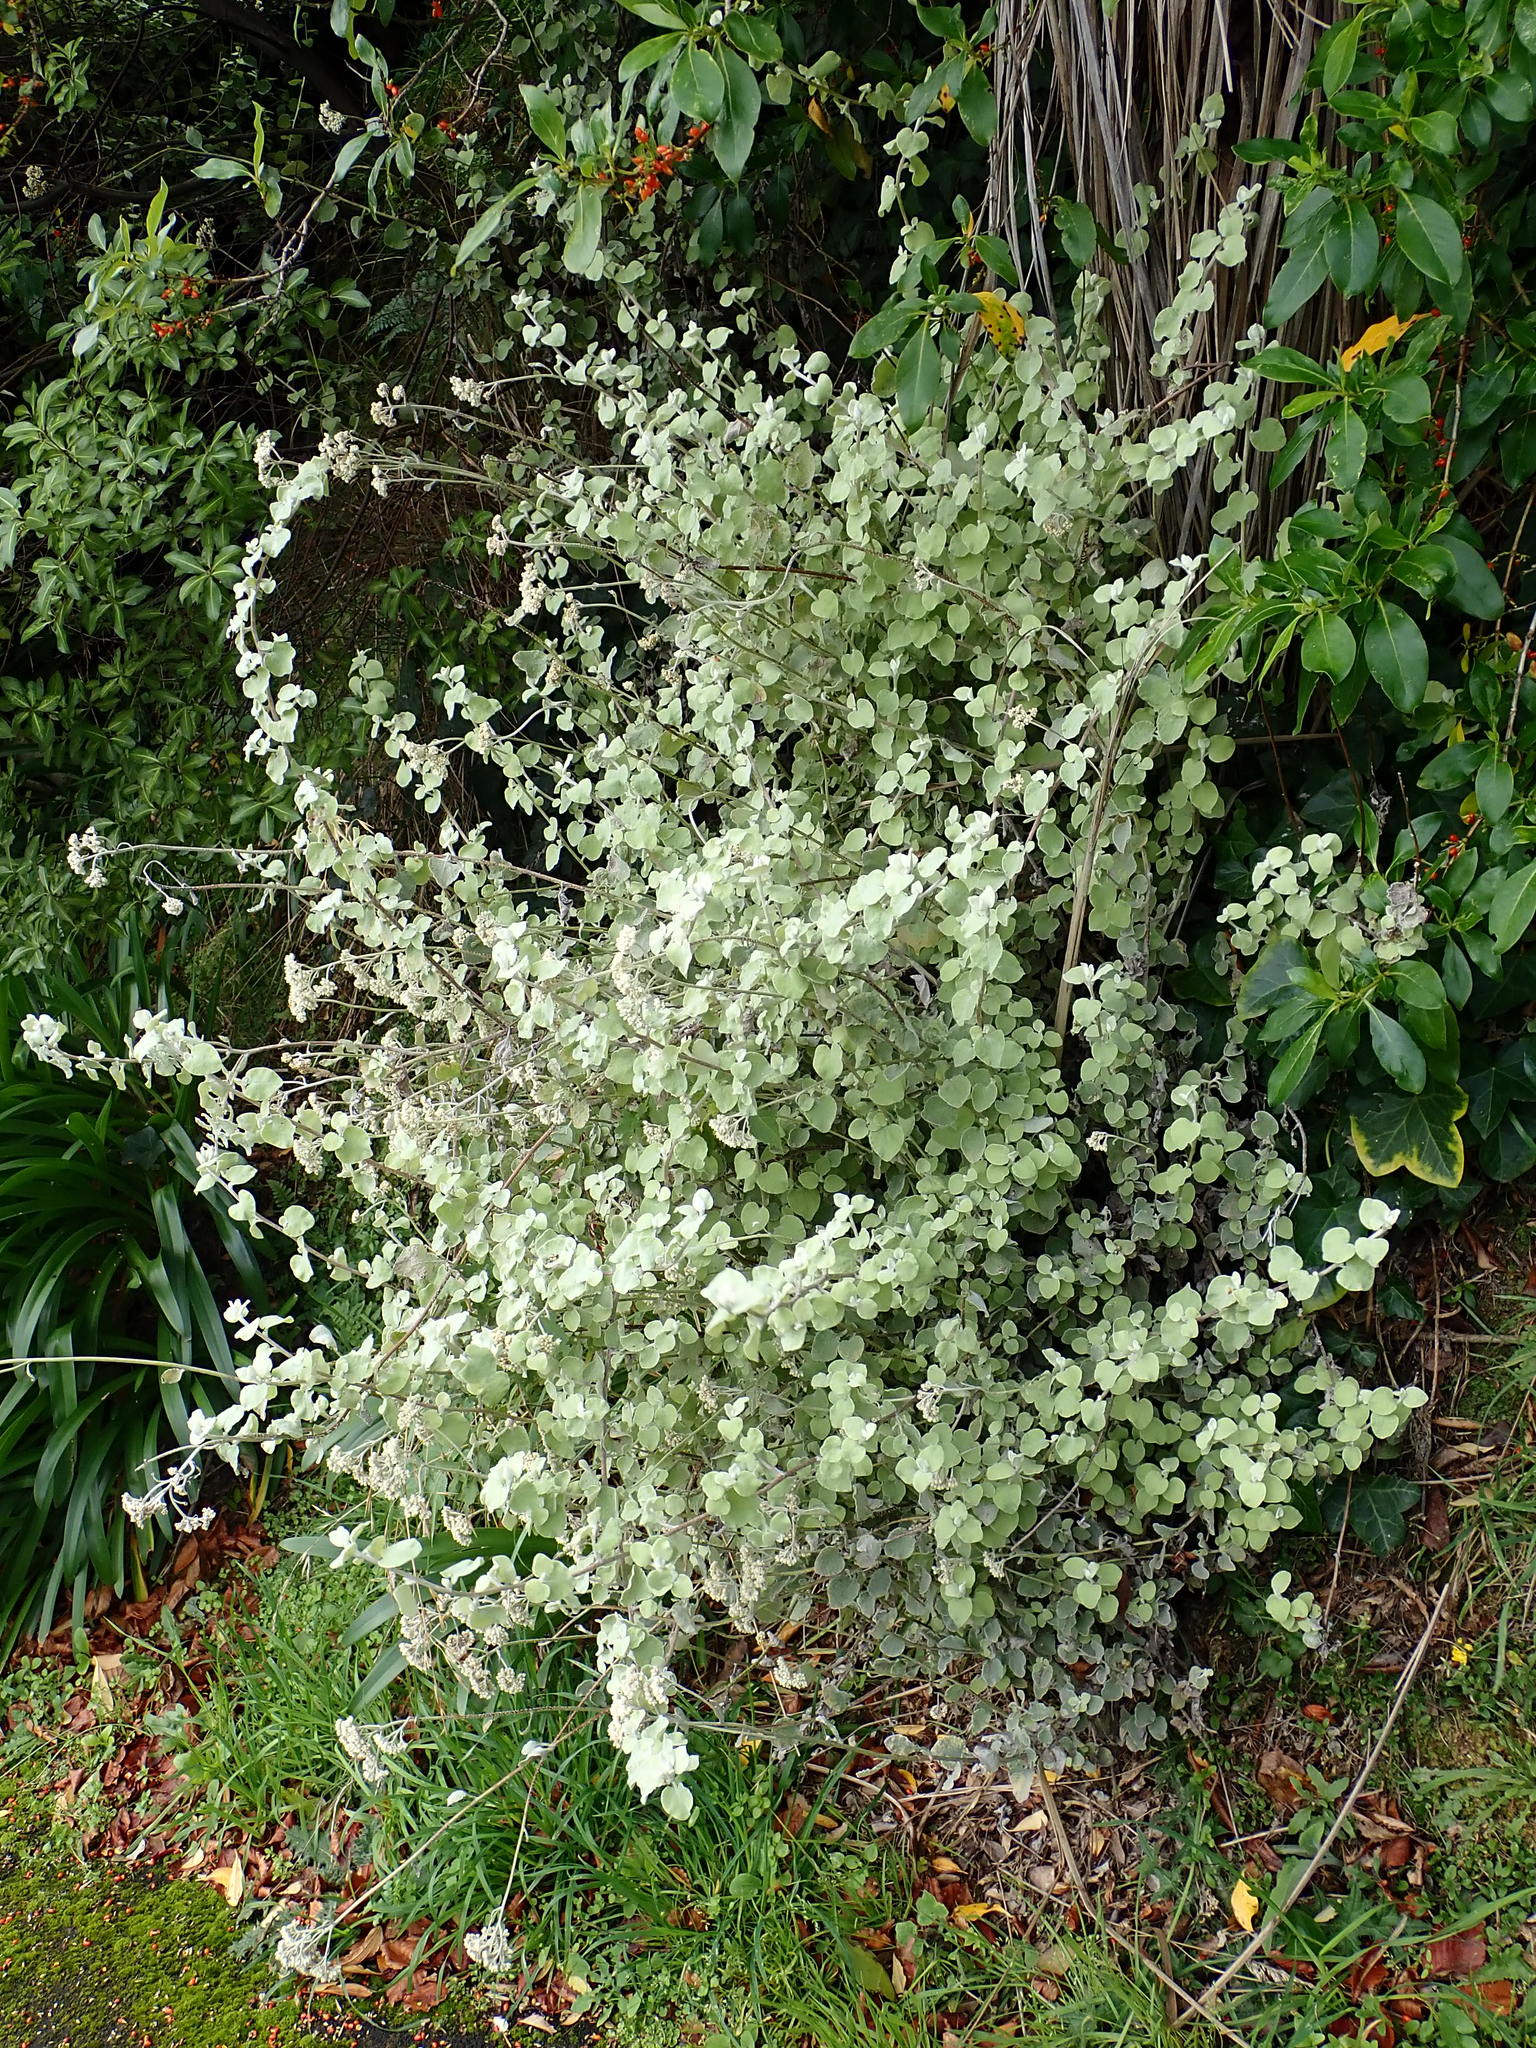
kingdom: Plantae
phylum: Tracheophyta
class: Magnoliopsida
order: Asterales
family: Asteraceae
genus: Helichrysum
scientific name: Helichrysum petiolare
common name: Licorice-plant
